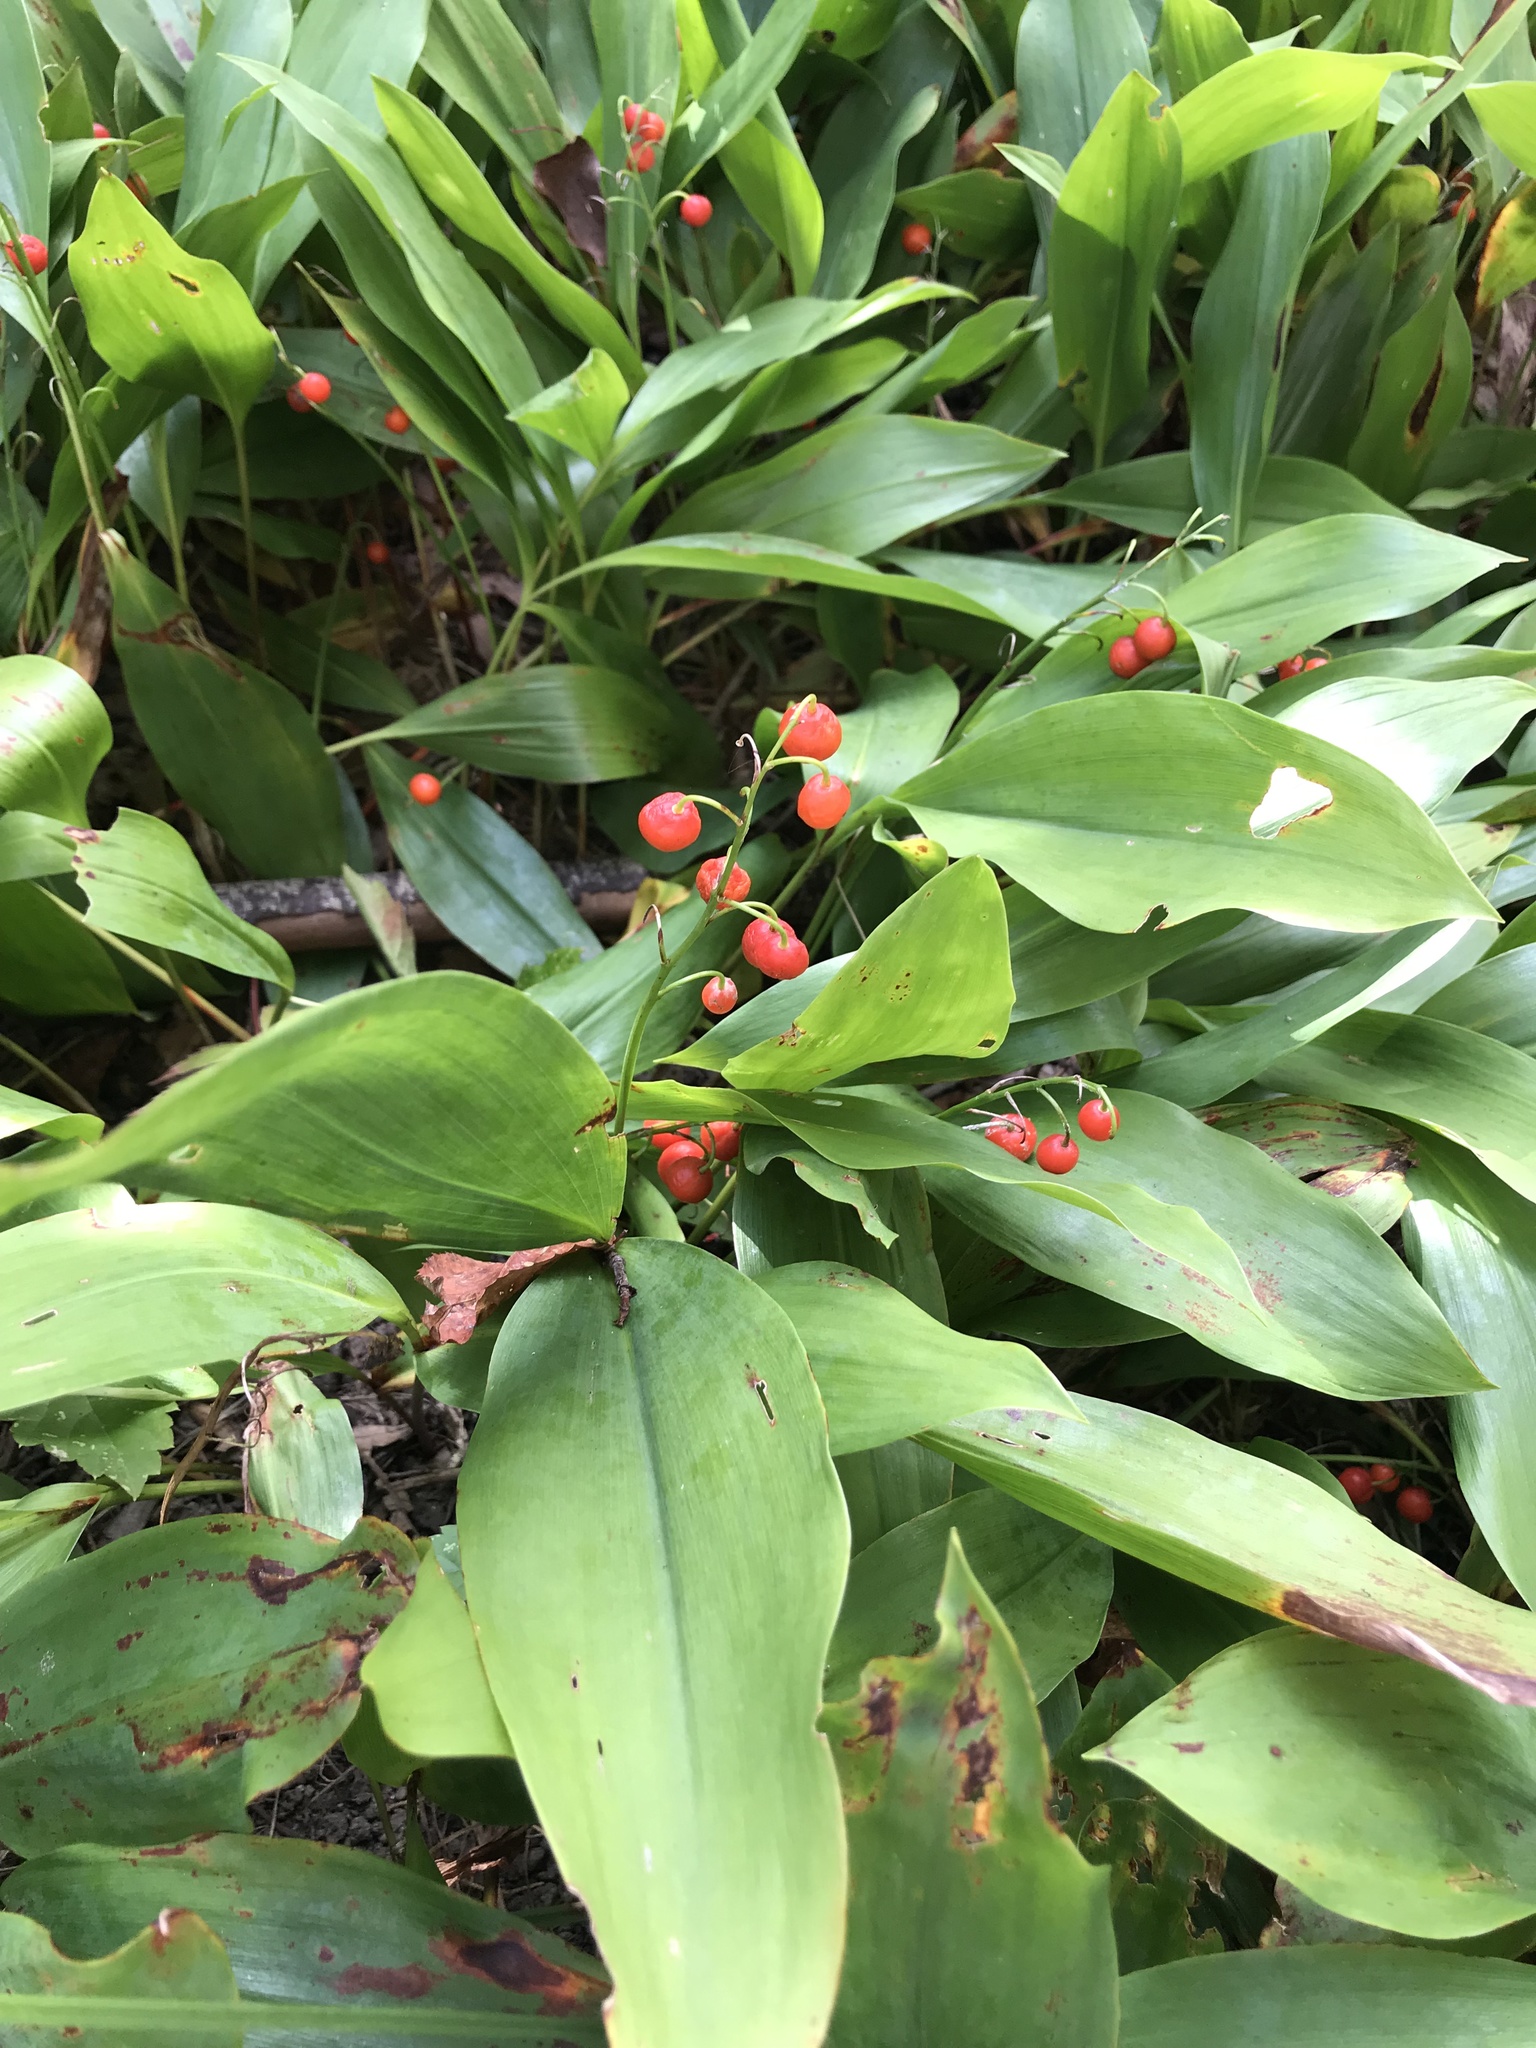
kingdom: Plantae
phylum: Tracheophyta
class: Liliopsida
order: Asparagales
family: Asparagaceae
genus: Convallaria
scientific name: Convallaria majalis
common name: Lily-of-the-valley
